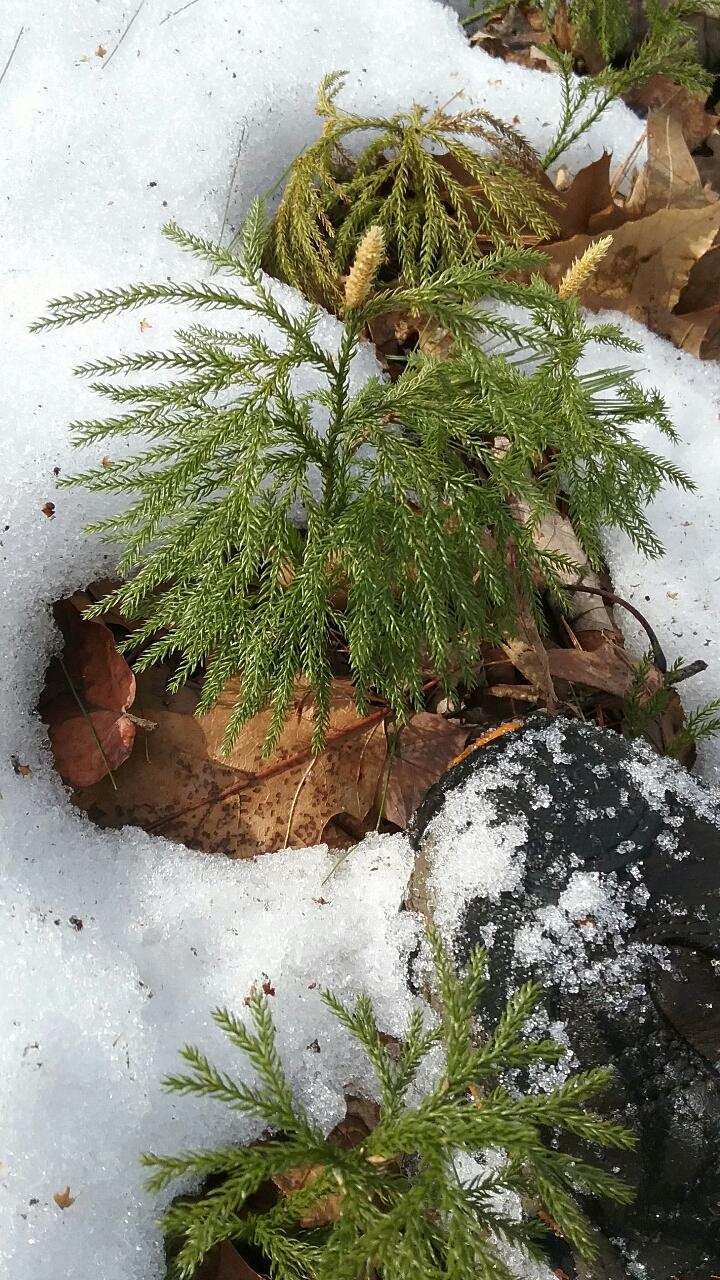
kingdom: Plantae
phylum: Tracheophyta
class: Lycopodiopsida
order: Lycopodiales
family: Lycopodiaceae
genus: Dendrolycopodium
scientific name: Dendrolycopodium dendroideum
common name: Northern tree-clubmoss
